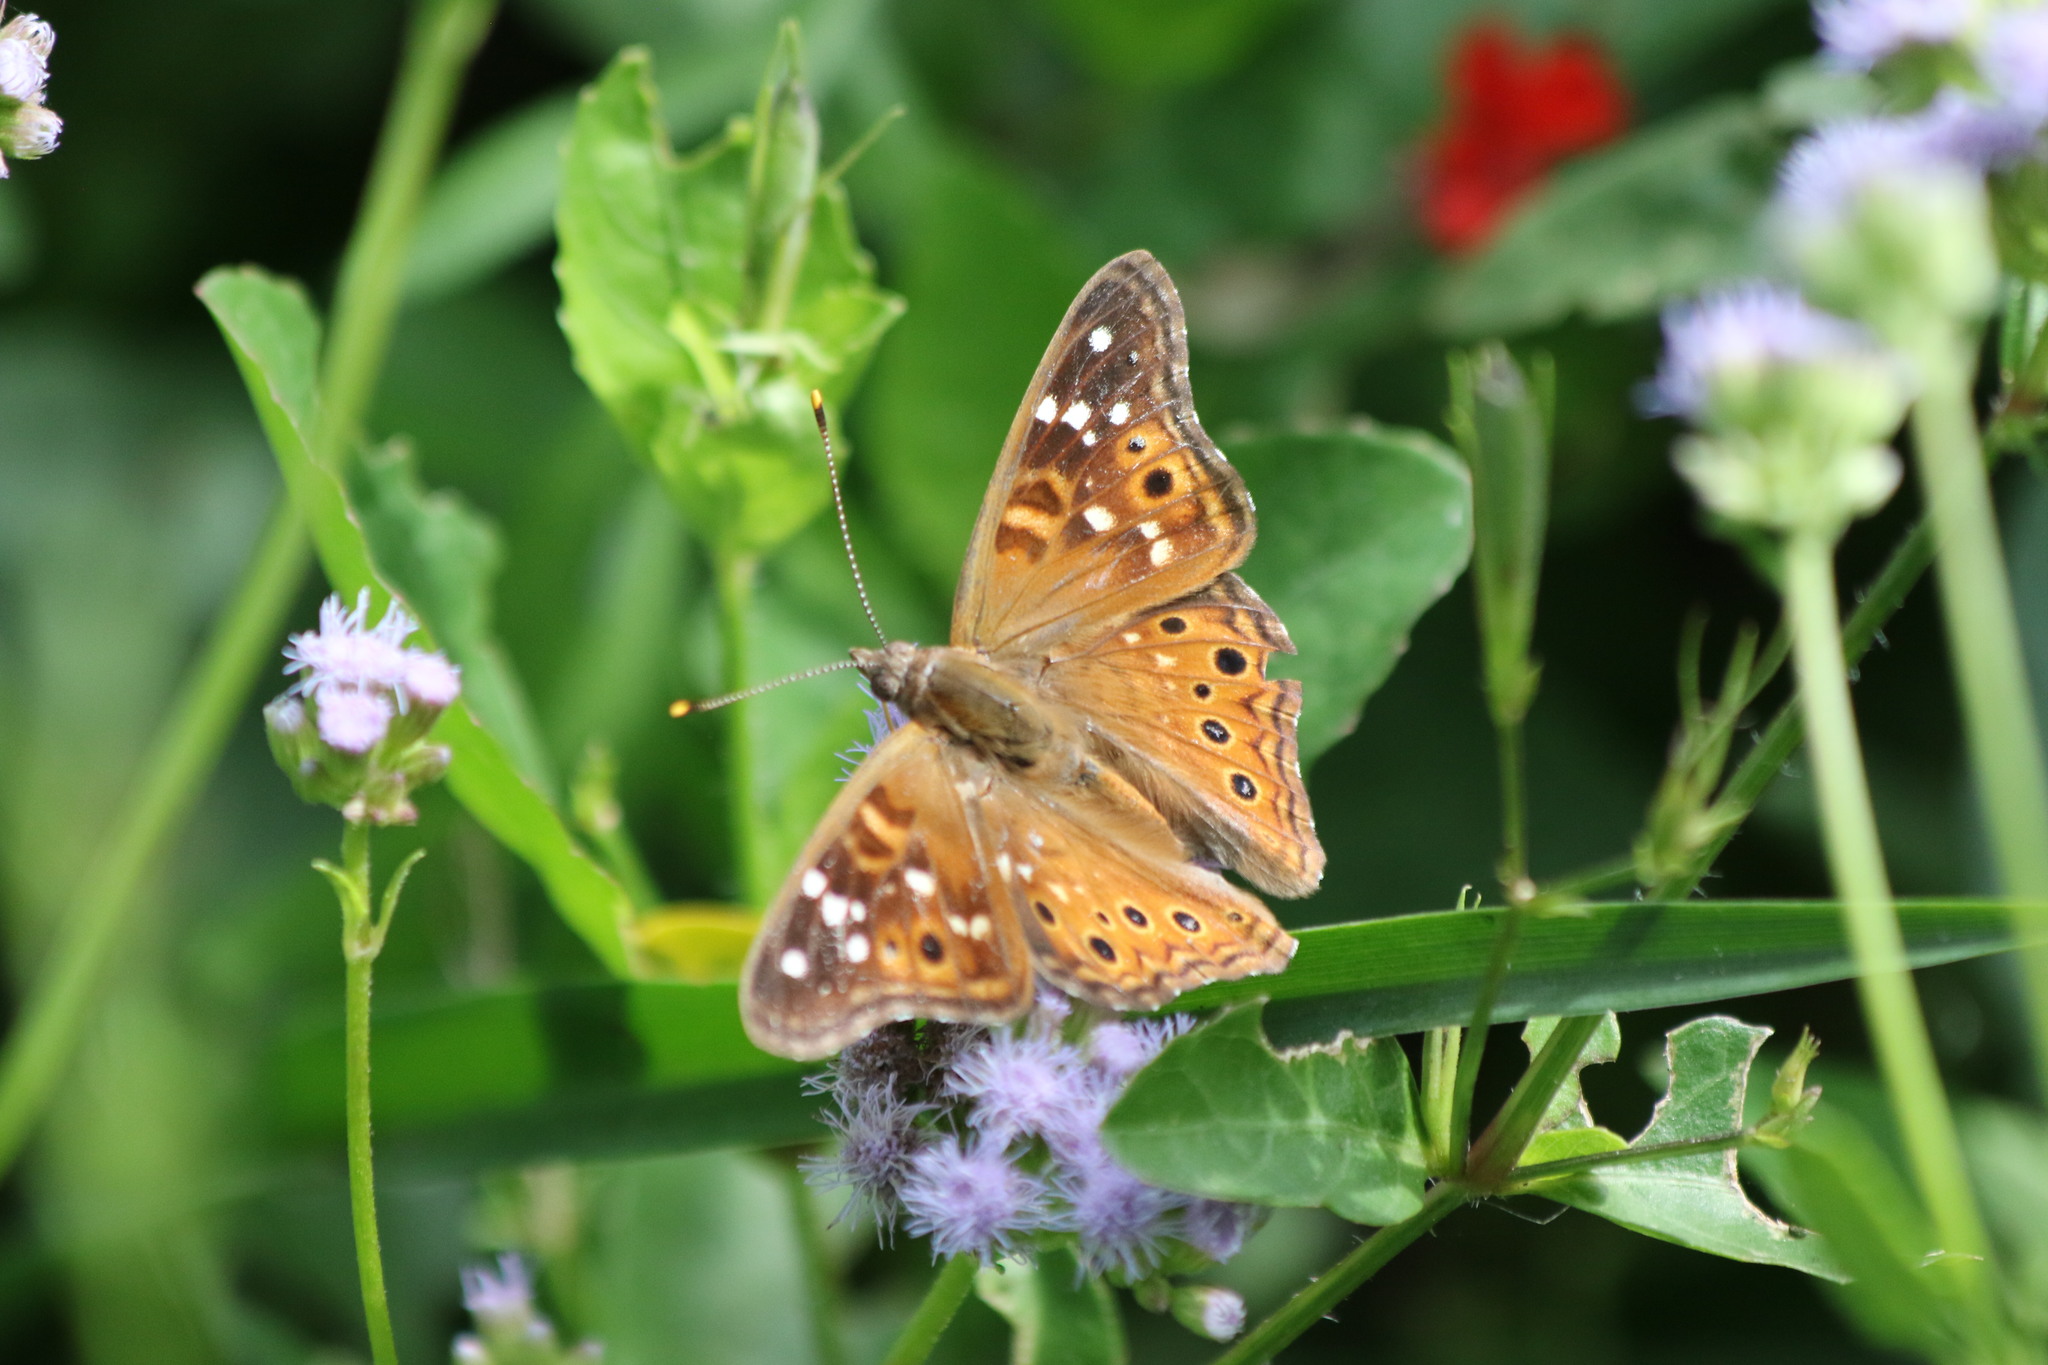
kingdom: Animalia
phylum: Arthropoda
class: Insecta
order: Lepidoptera
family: Nymphalidae
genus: Asterocampa
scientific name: Asterocampa leilia
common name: Empress leilia
